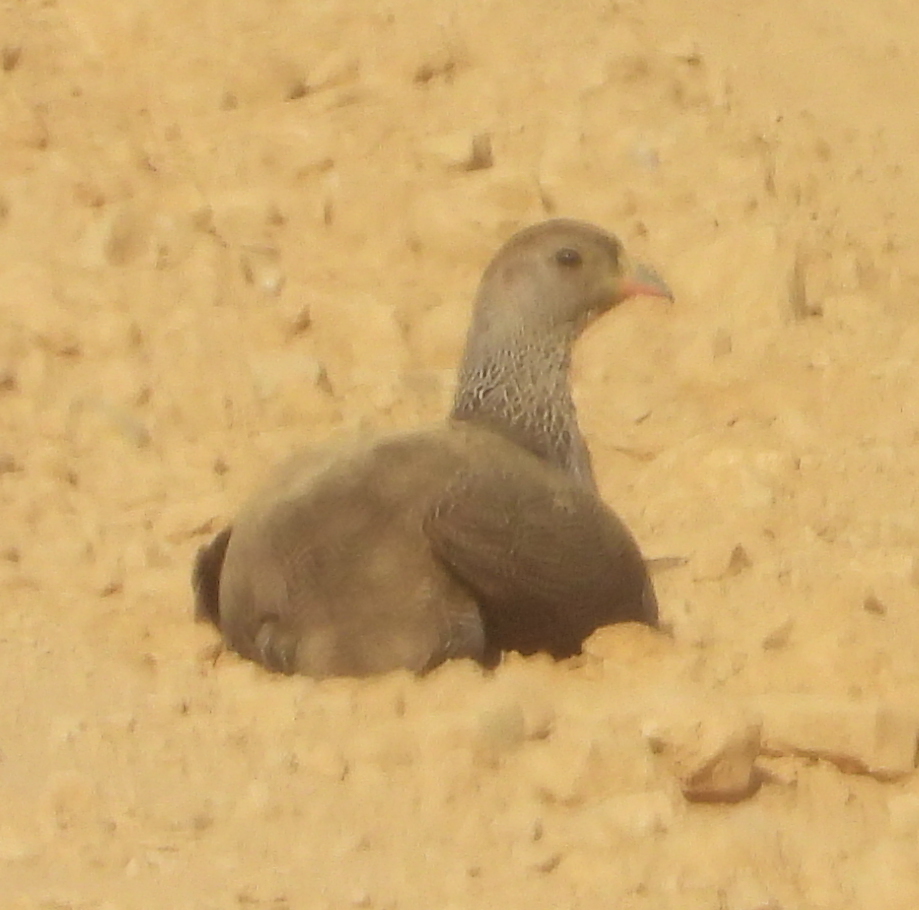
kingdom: Animalia
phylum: Chordata
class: Aves
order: Galliformes
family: Phasianidae
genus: Pternistis
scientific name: Pternistis capensis
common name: Cape spurfowl
